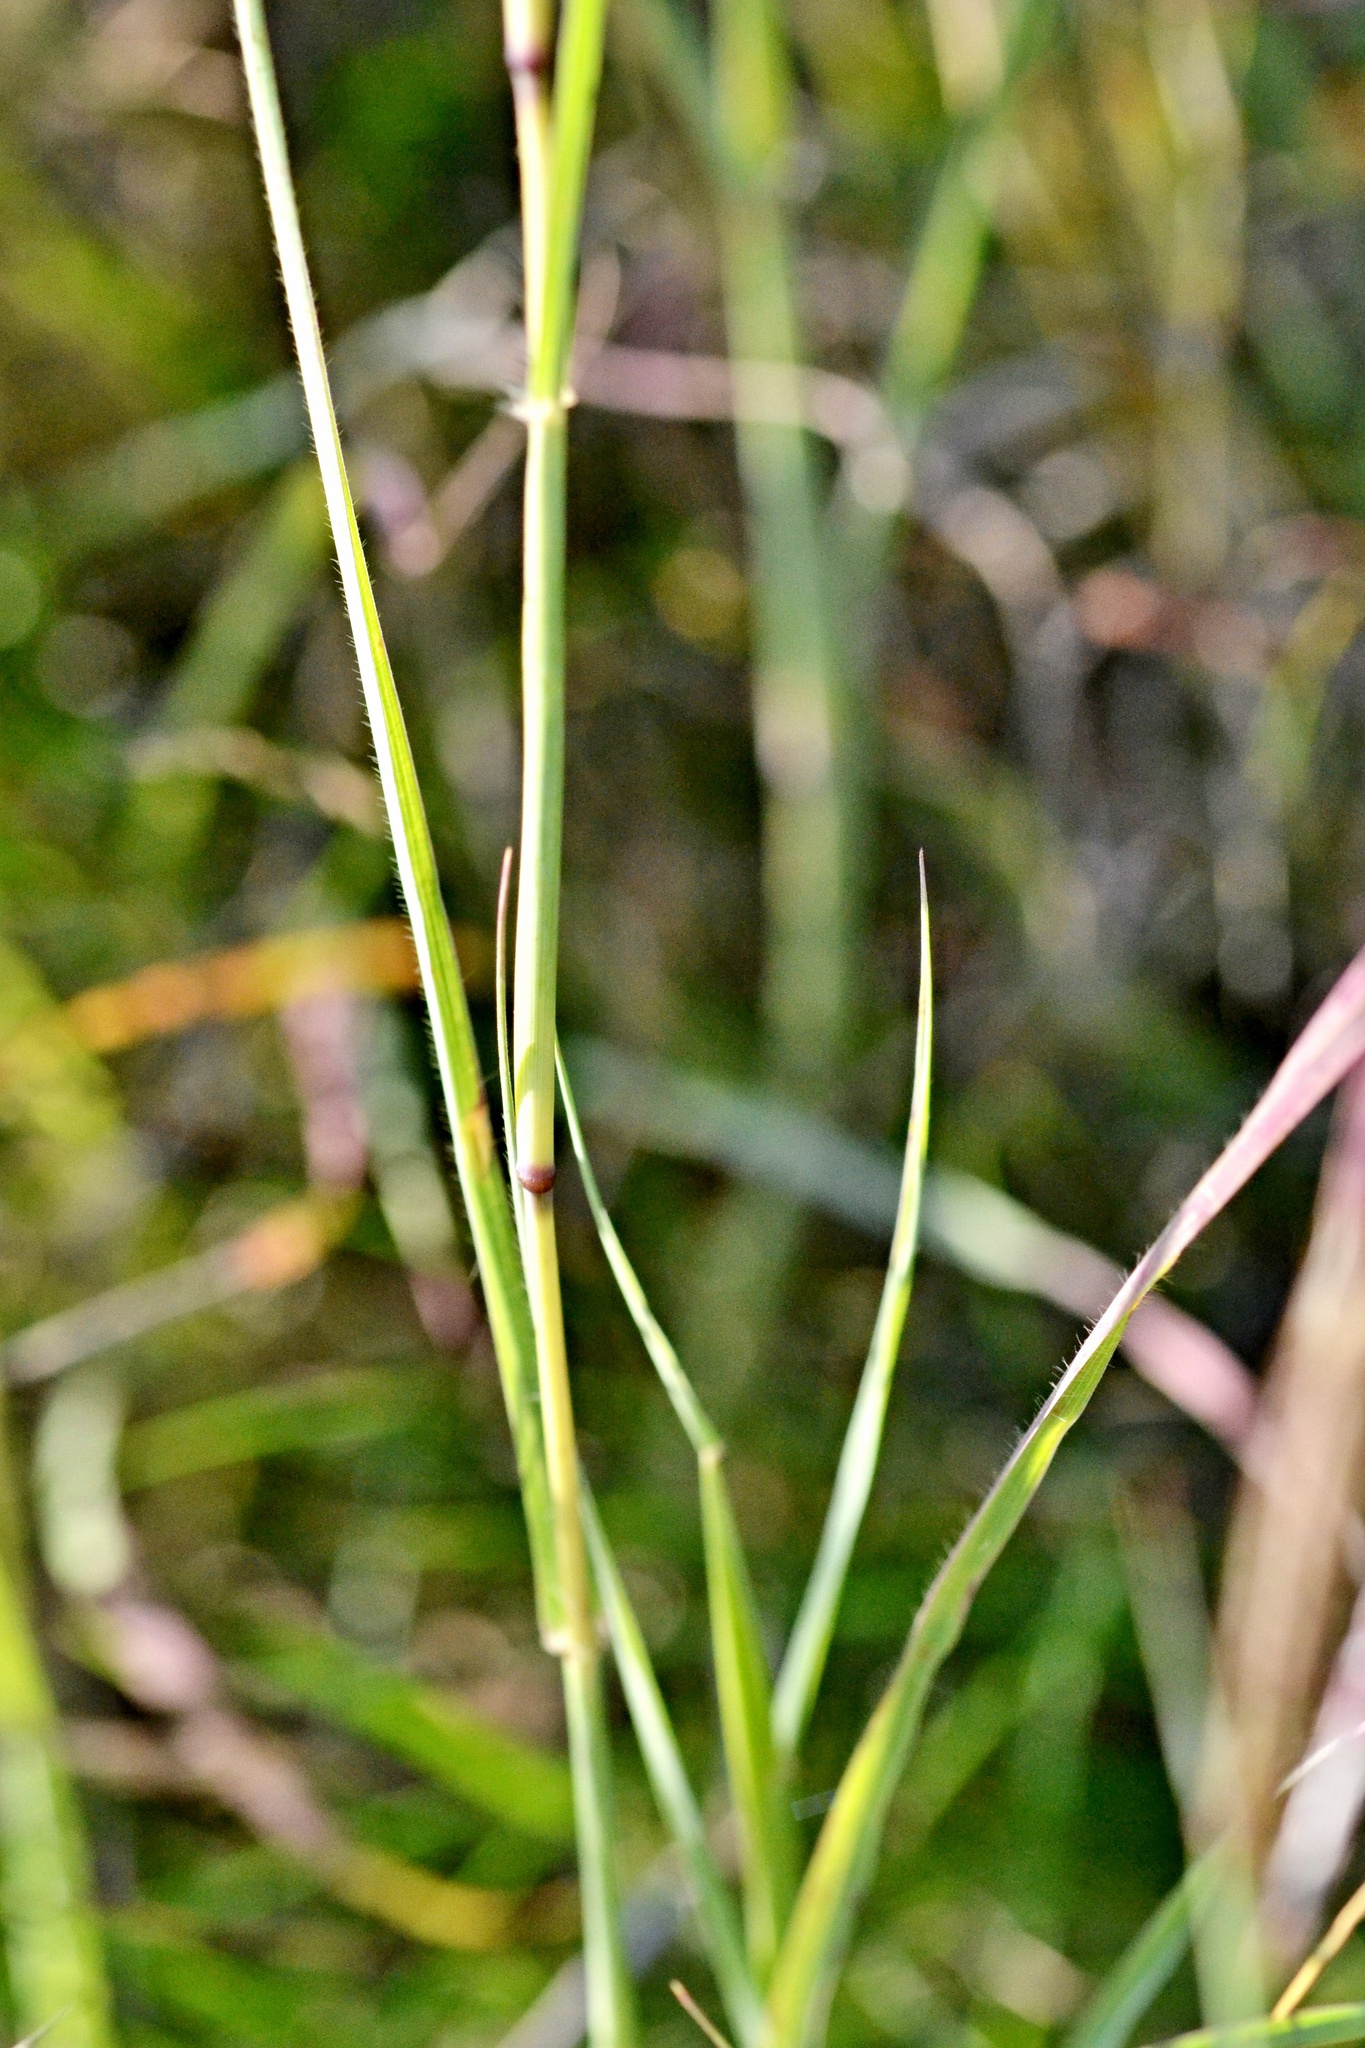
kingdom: Plantae
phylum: Tracheophyta
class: Liliopsida
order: Poales
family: Poaceae
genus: Bothriochloa
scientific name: Bothriochloa ischaemum
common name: Yellow bluestem
